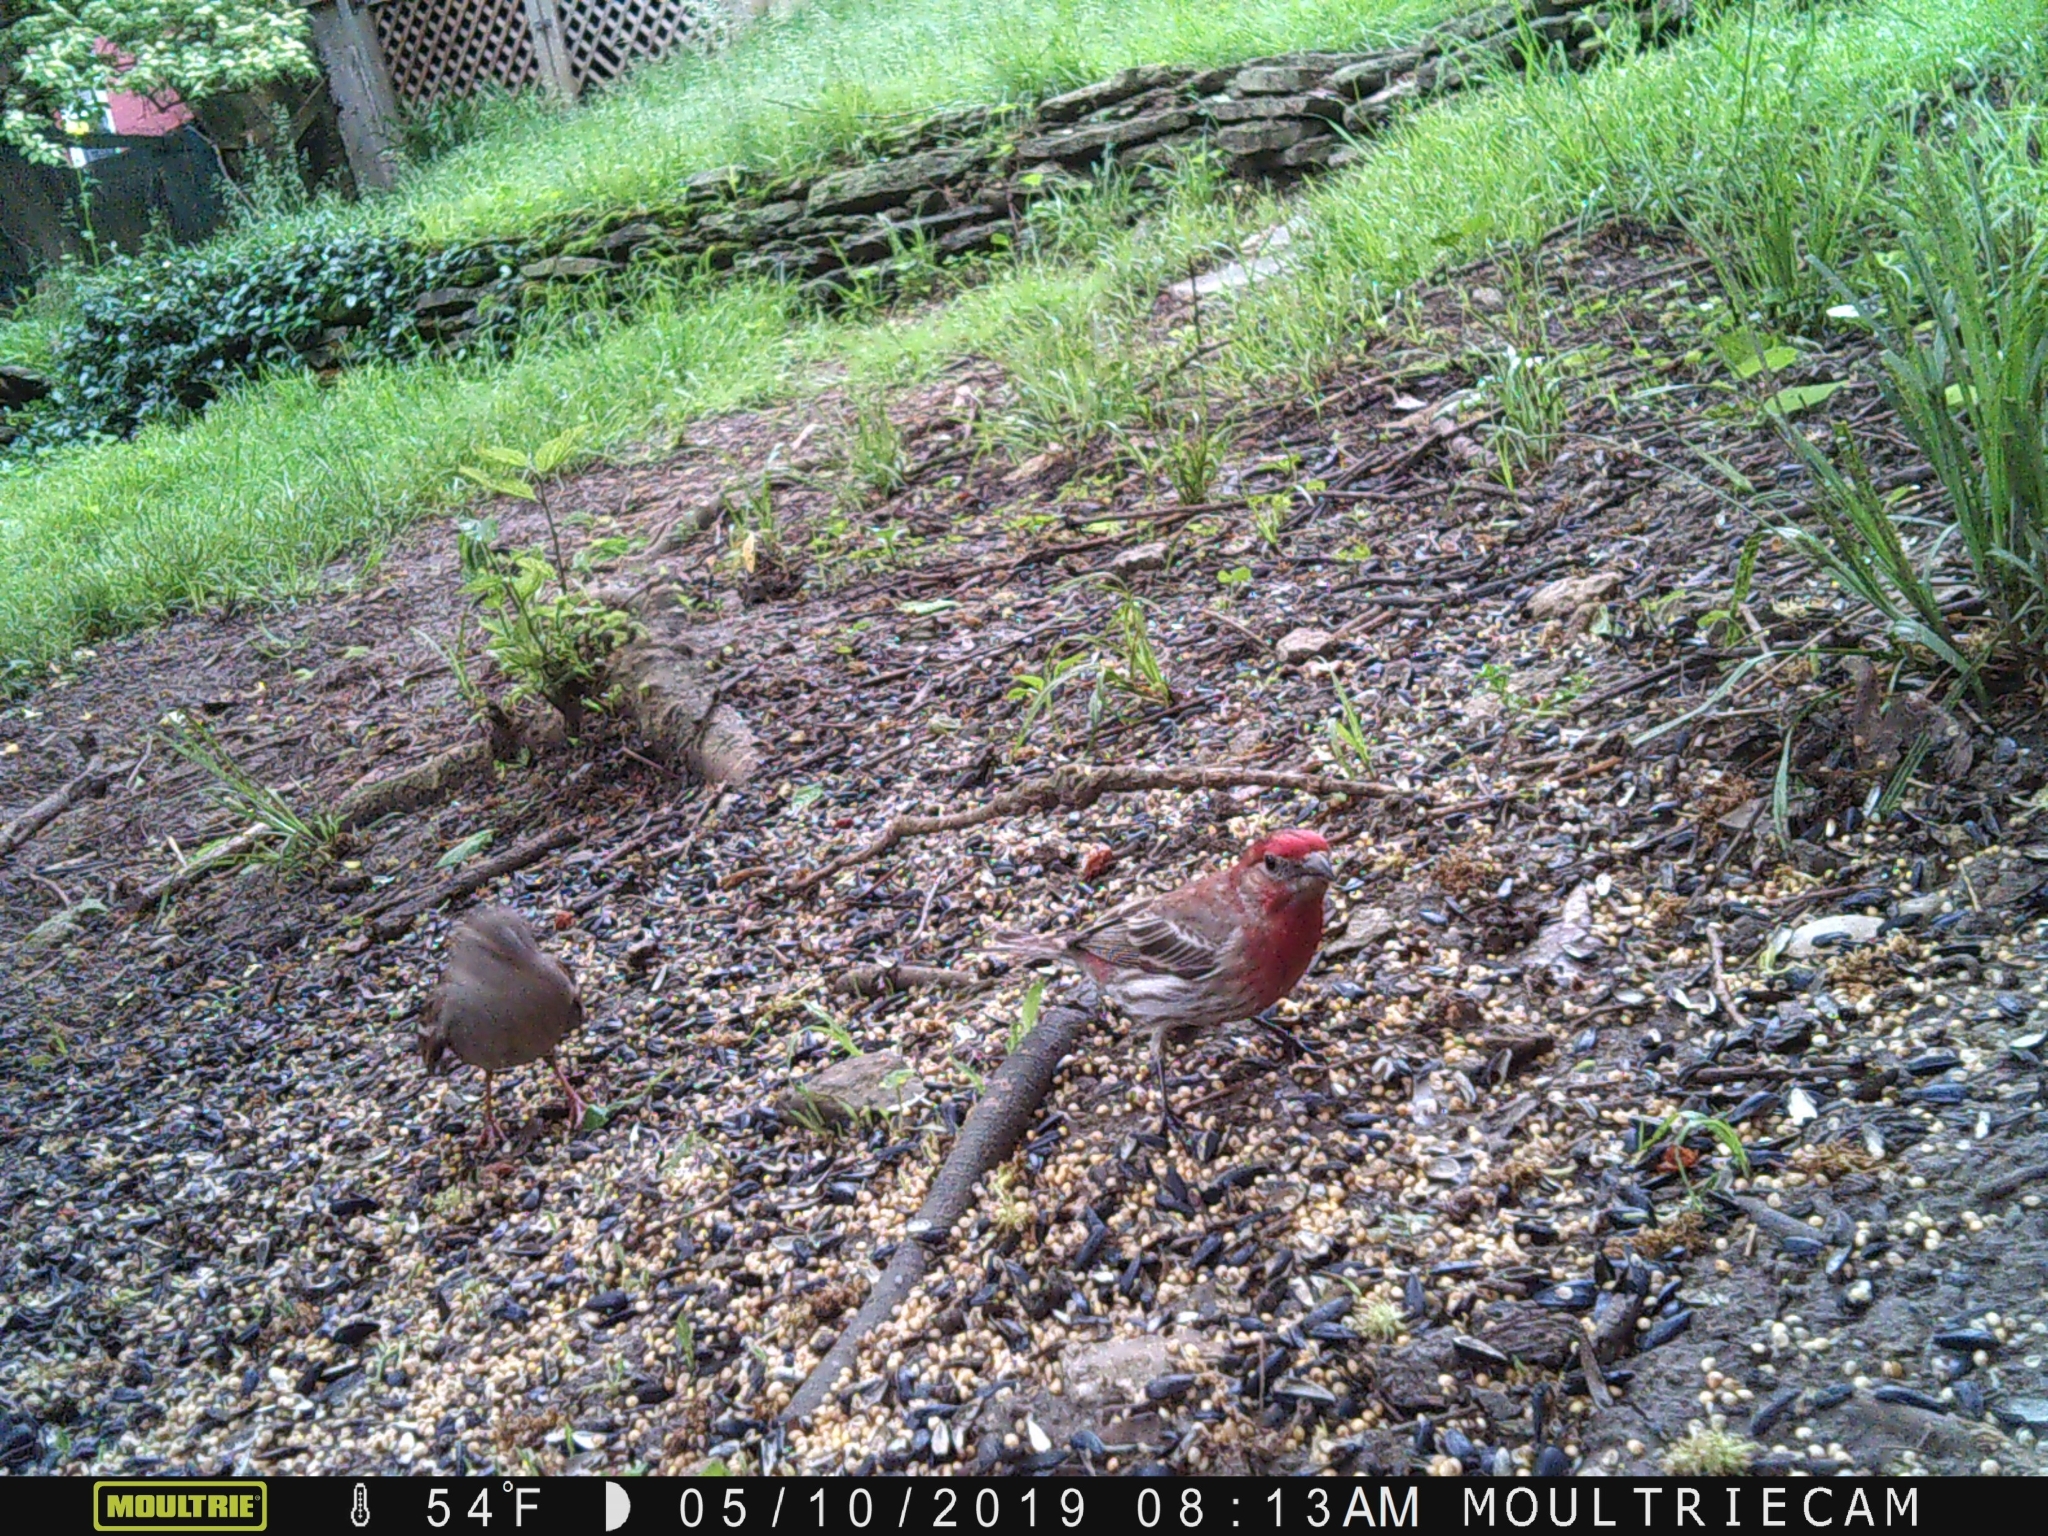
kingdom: Animalia
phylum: Chordata
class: Aves
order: Passeriformes
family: Fringillidae
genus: Haemorhous
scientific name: Haemorhous mexicanus
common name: House finch
